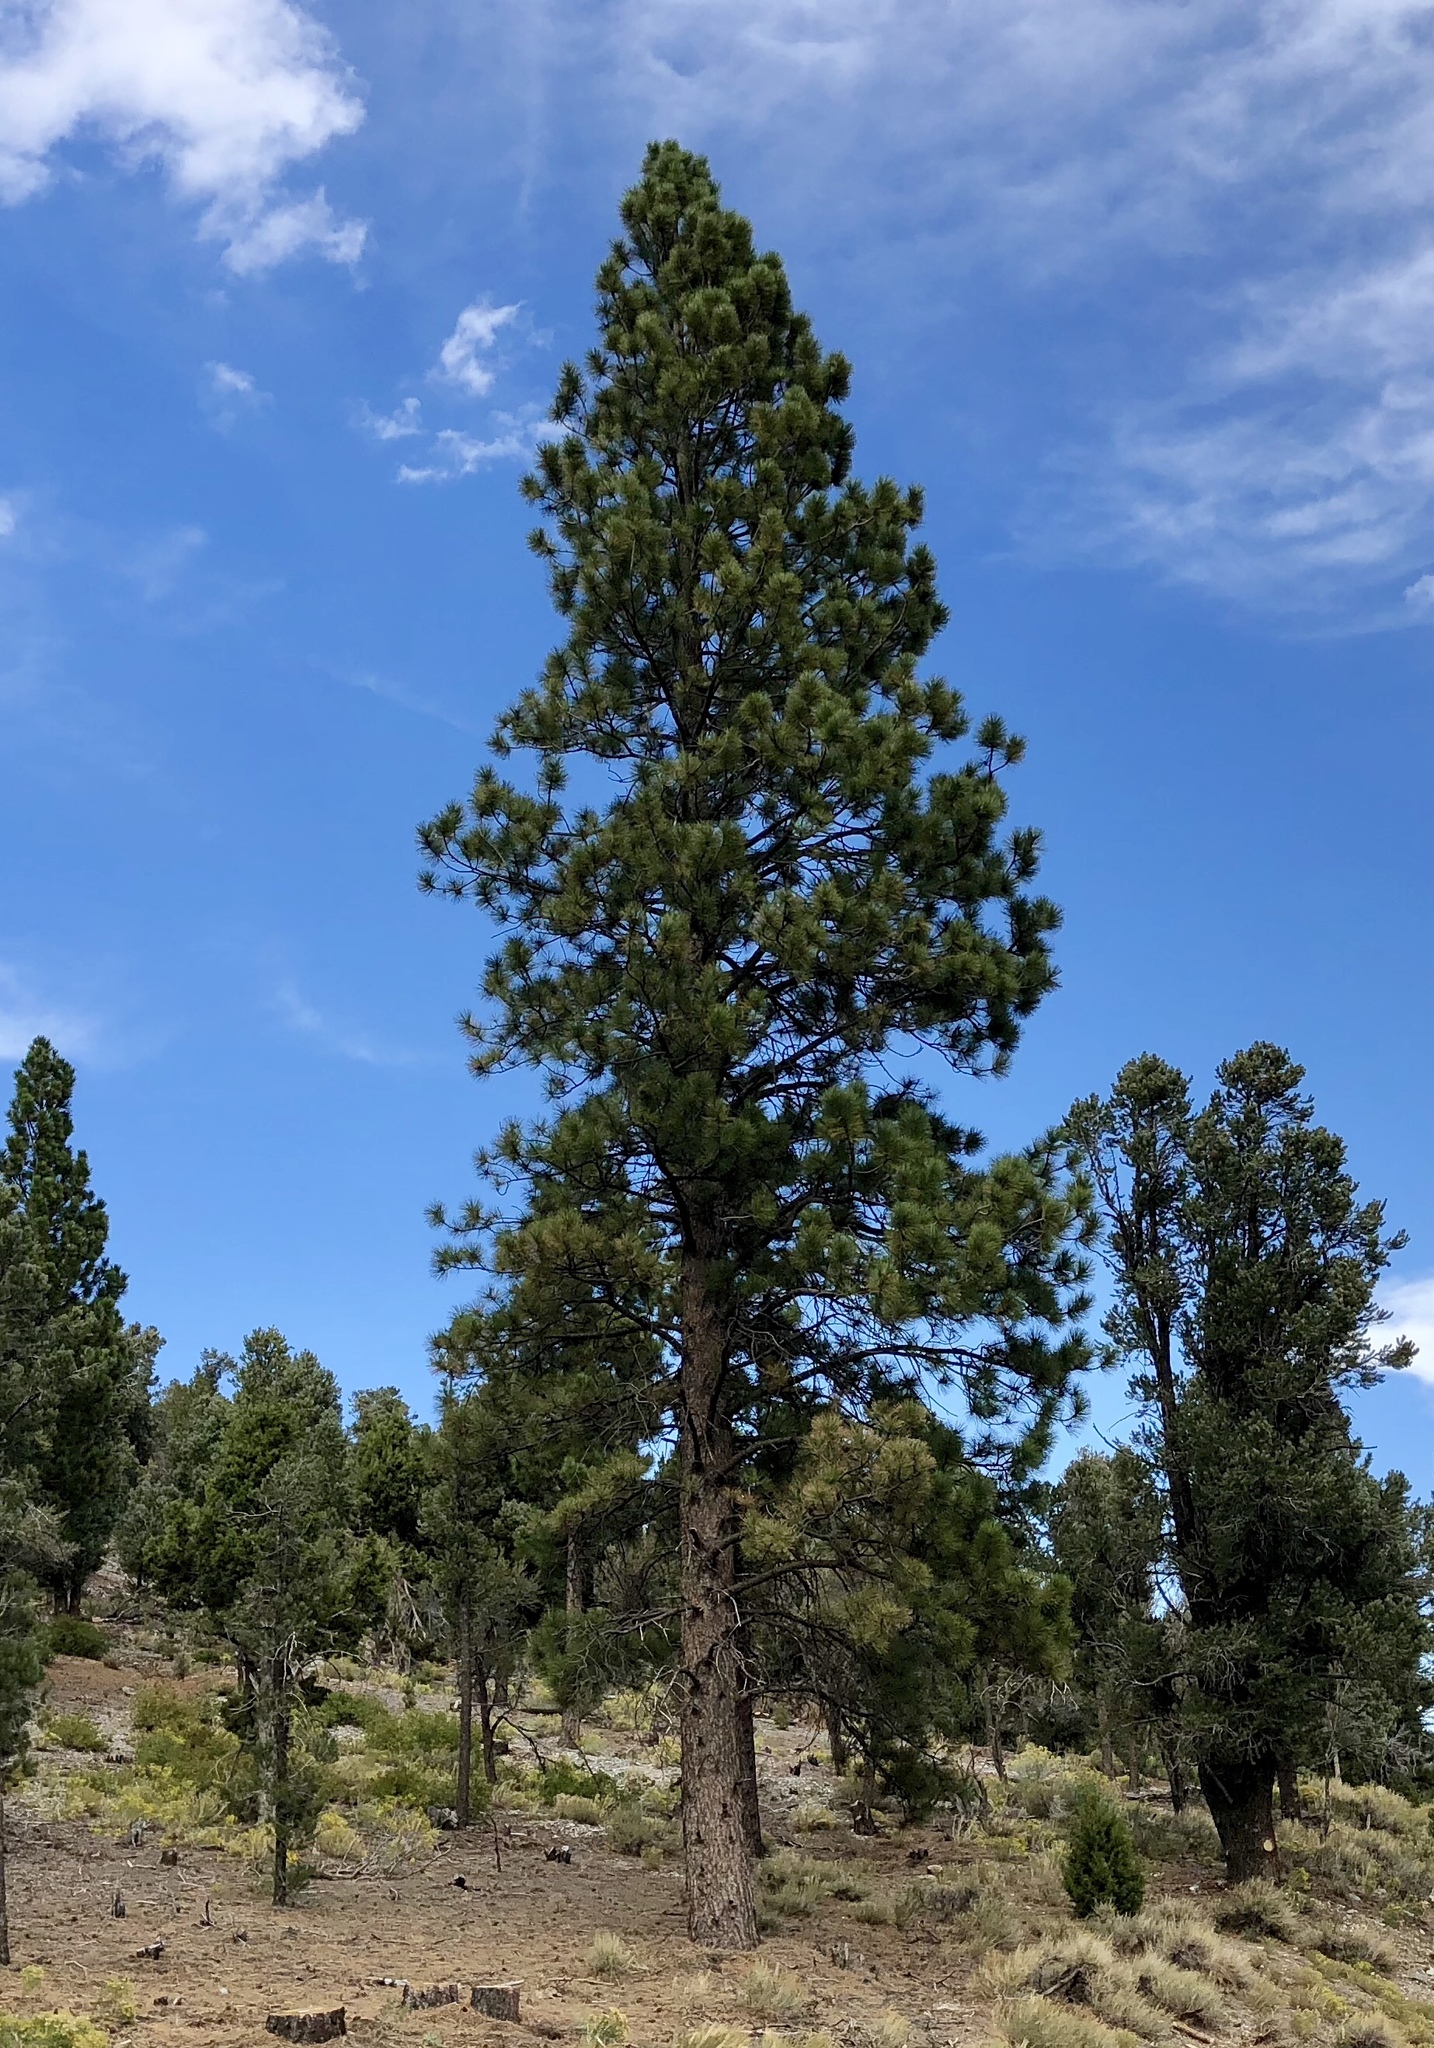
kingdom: Plantae
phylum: Tracheophyta
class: Pinopsida
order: Pinales
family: Pinaceae
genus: Pinus
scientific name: Pinus ponderosa
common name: Western yellow-pine
